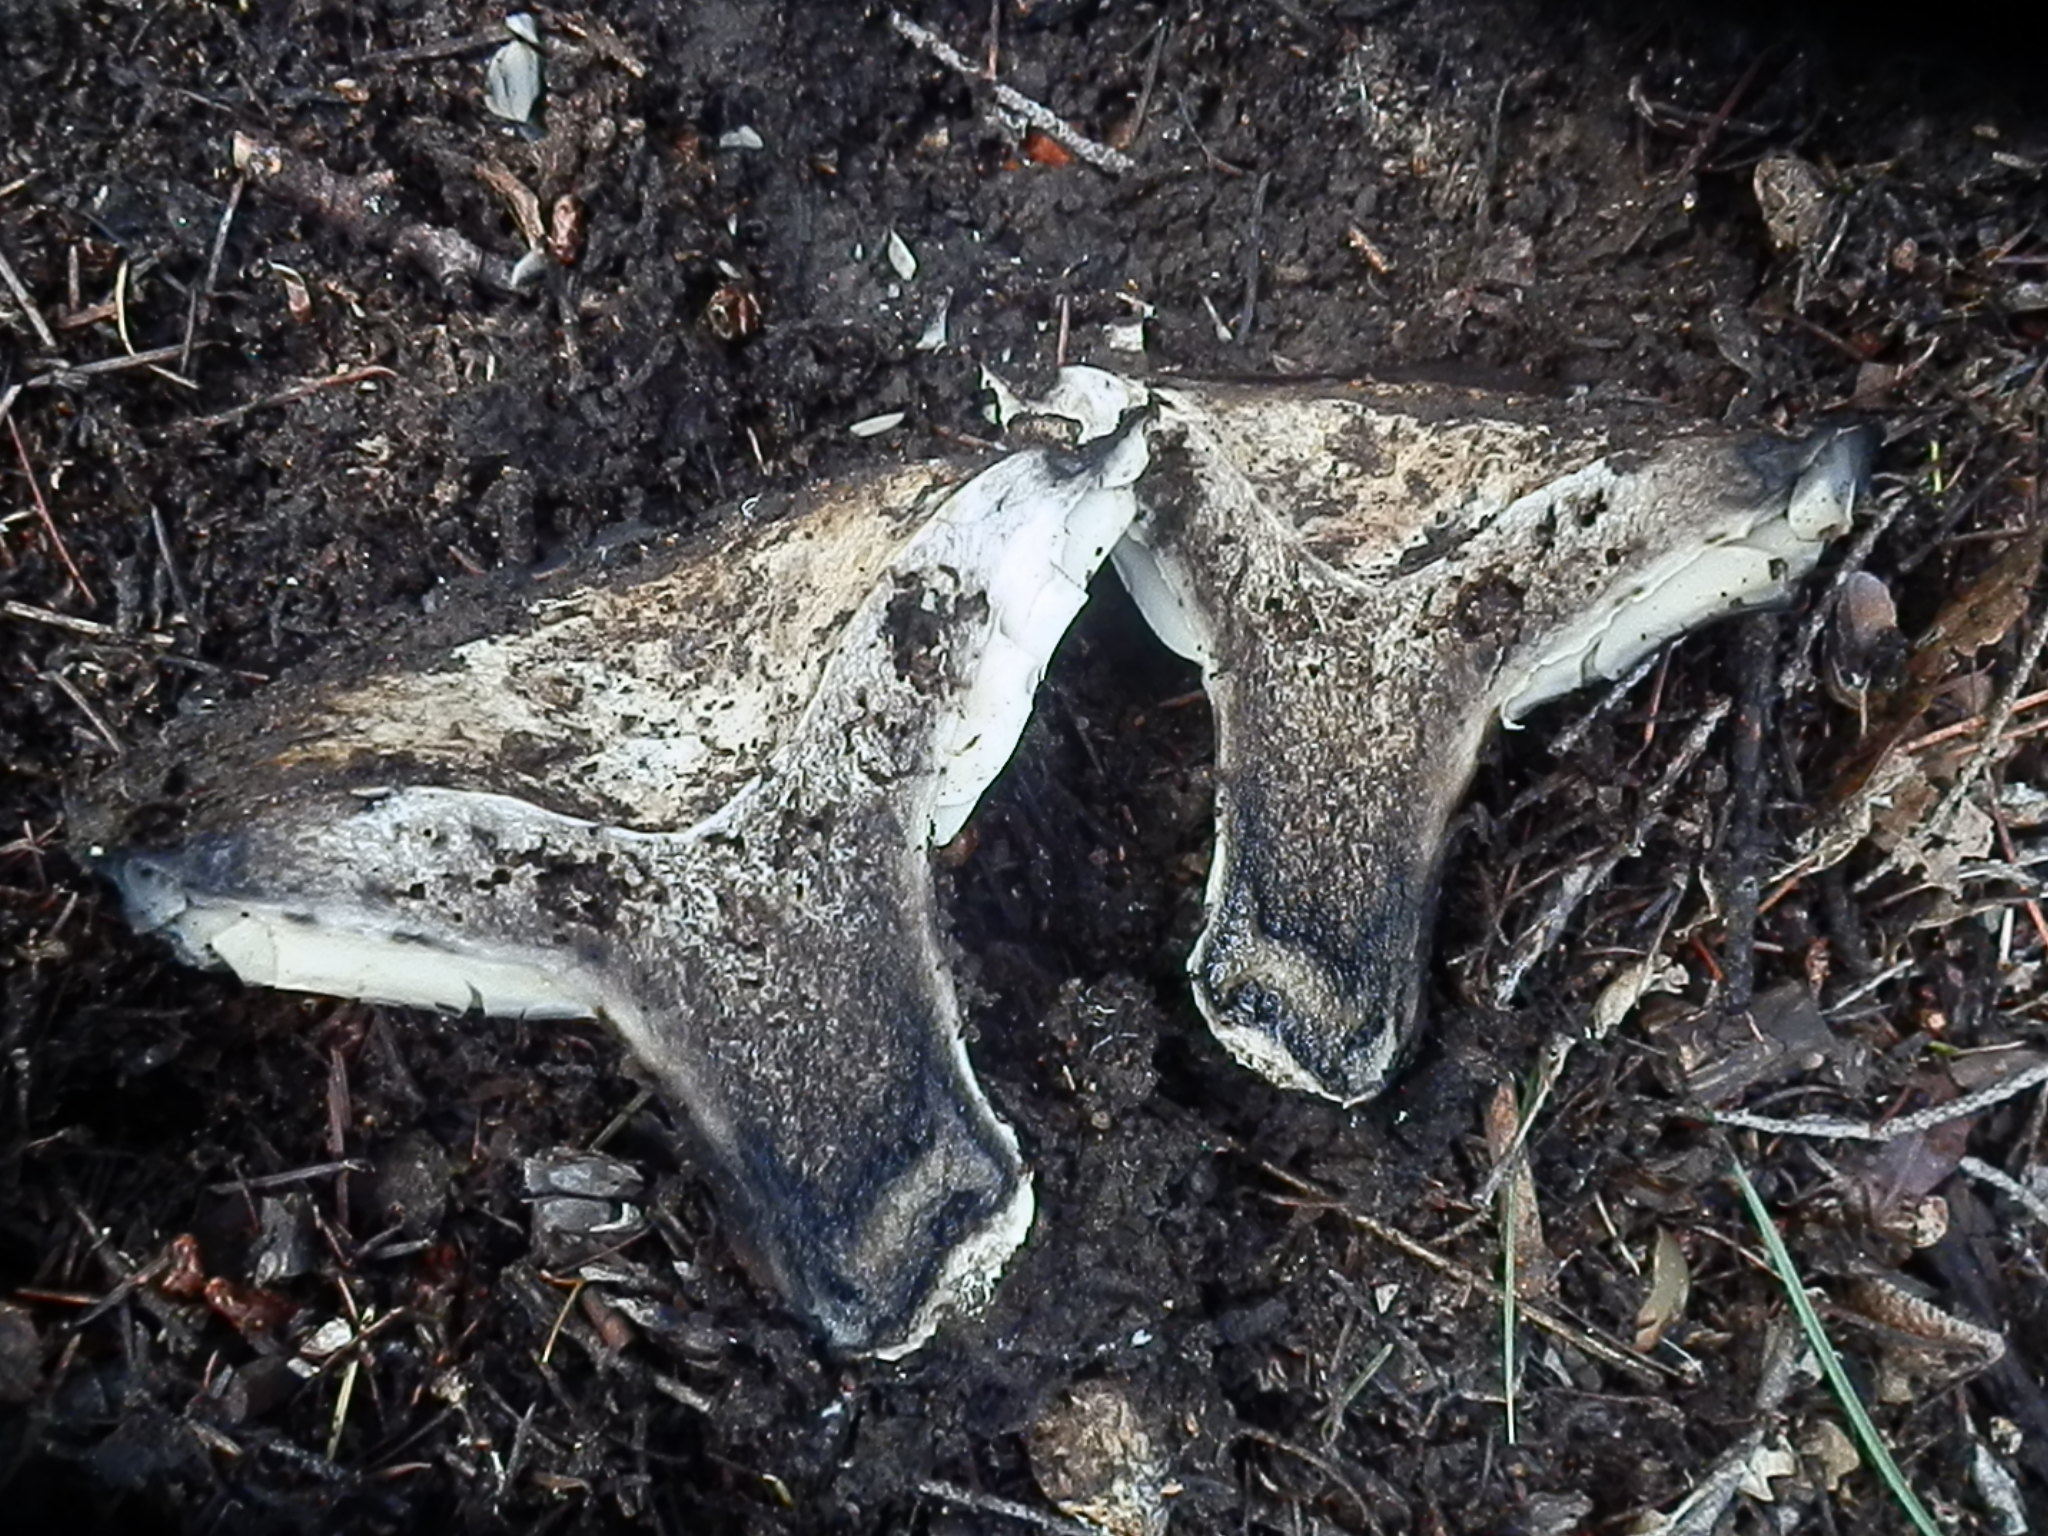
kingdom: Fungi
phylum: Basidiomycota
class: Agaricomycetes
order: Russulales
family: Russulaceae
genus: Russula
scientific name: Russula albonigra
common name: Menthol brittlegill
